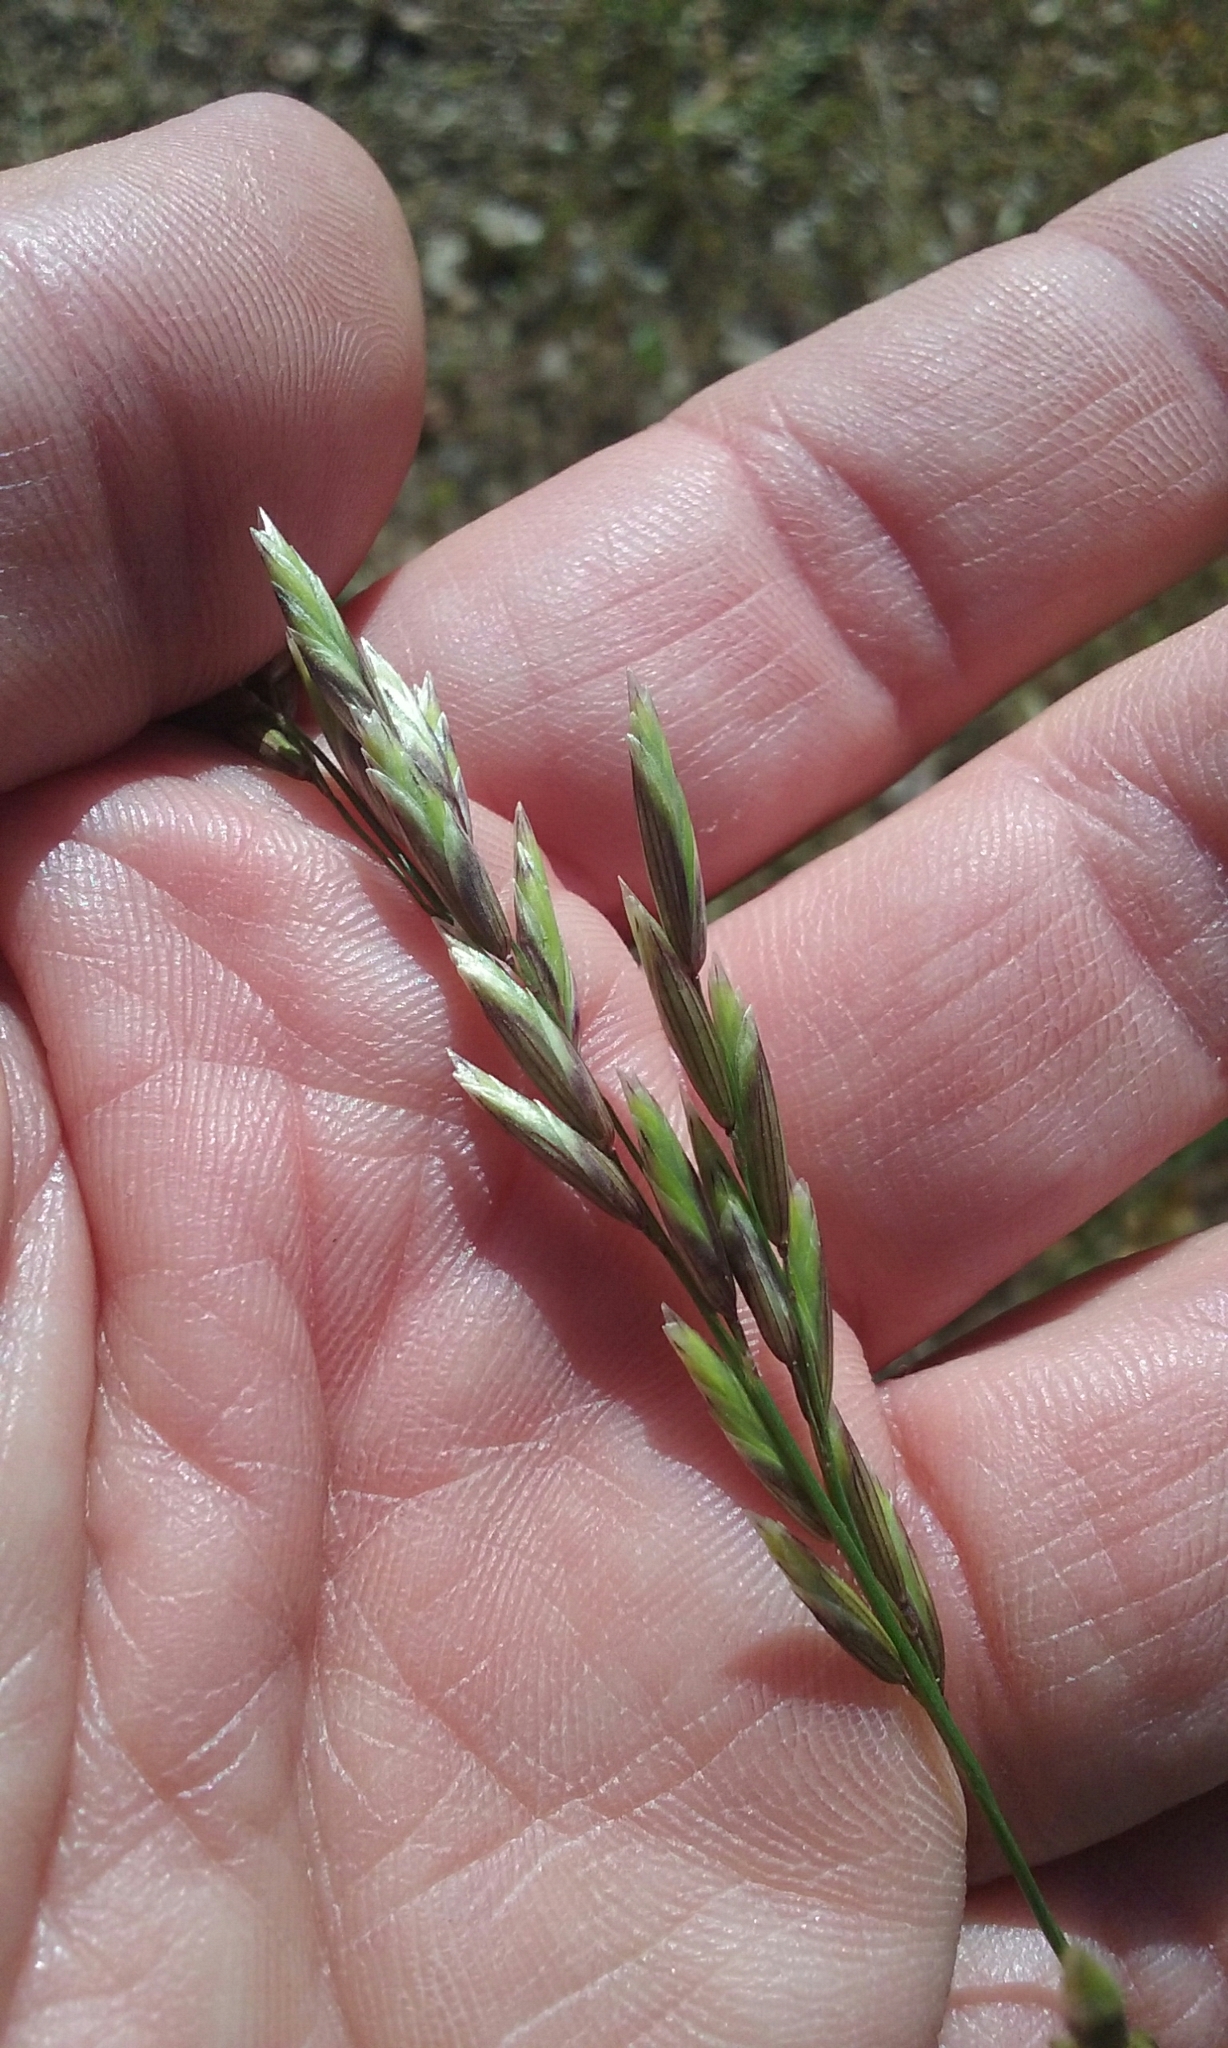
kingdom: Plantae
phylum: Tracheophyta
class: Liliopsida
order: Poales
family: Poaceae
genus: Melica
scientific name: Melica californica
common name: California melic
